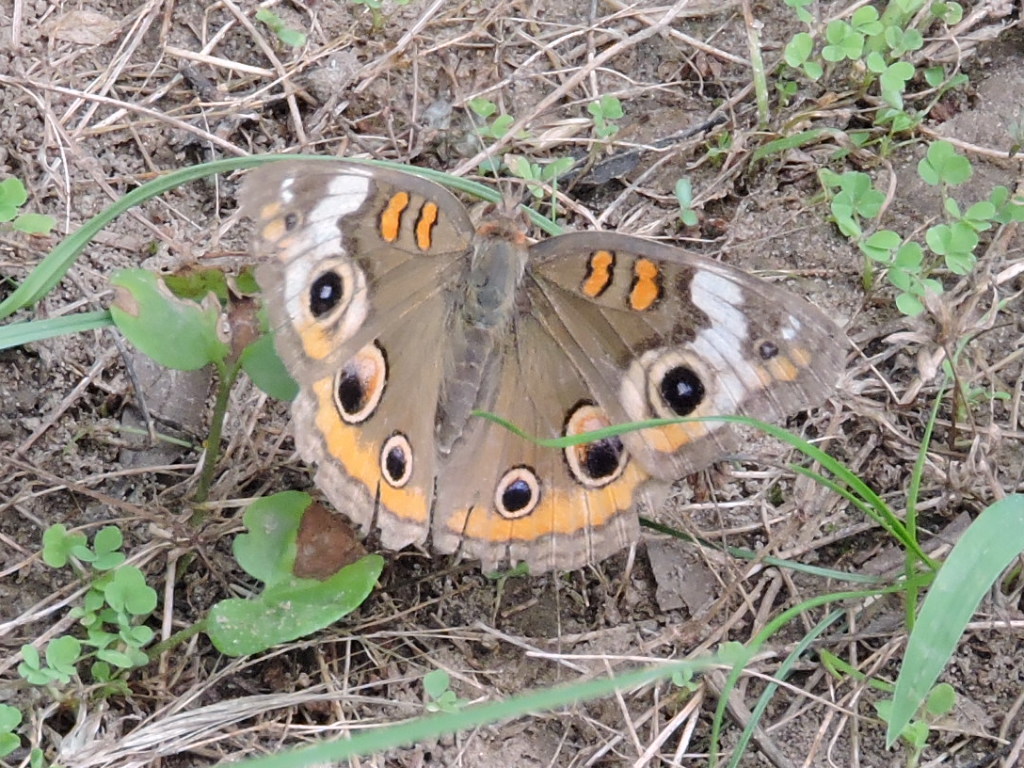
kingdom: Animalia
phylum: Arthropoda
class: Insecta
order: Lepidoptera
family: Nymphalidae
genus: Junonia
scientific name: Junonia coenia
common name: Common buckeye
